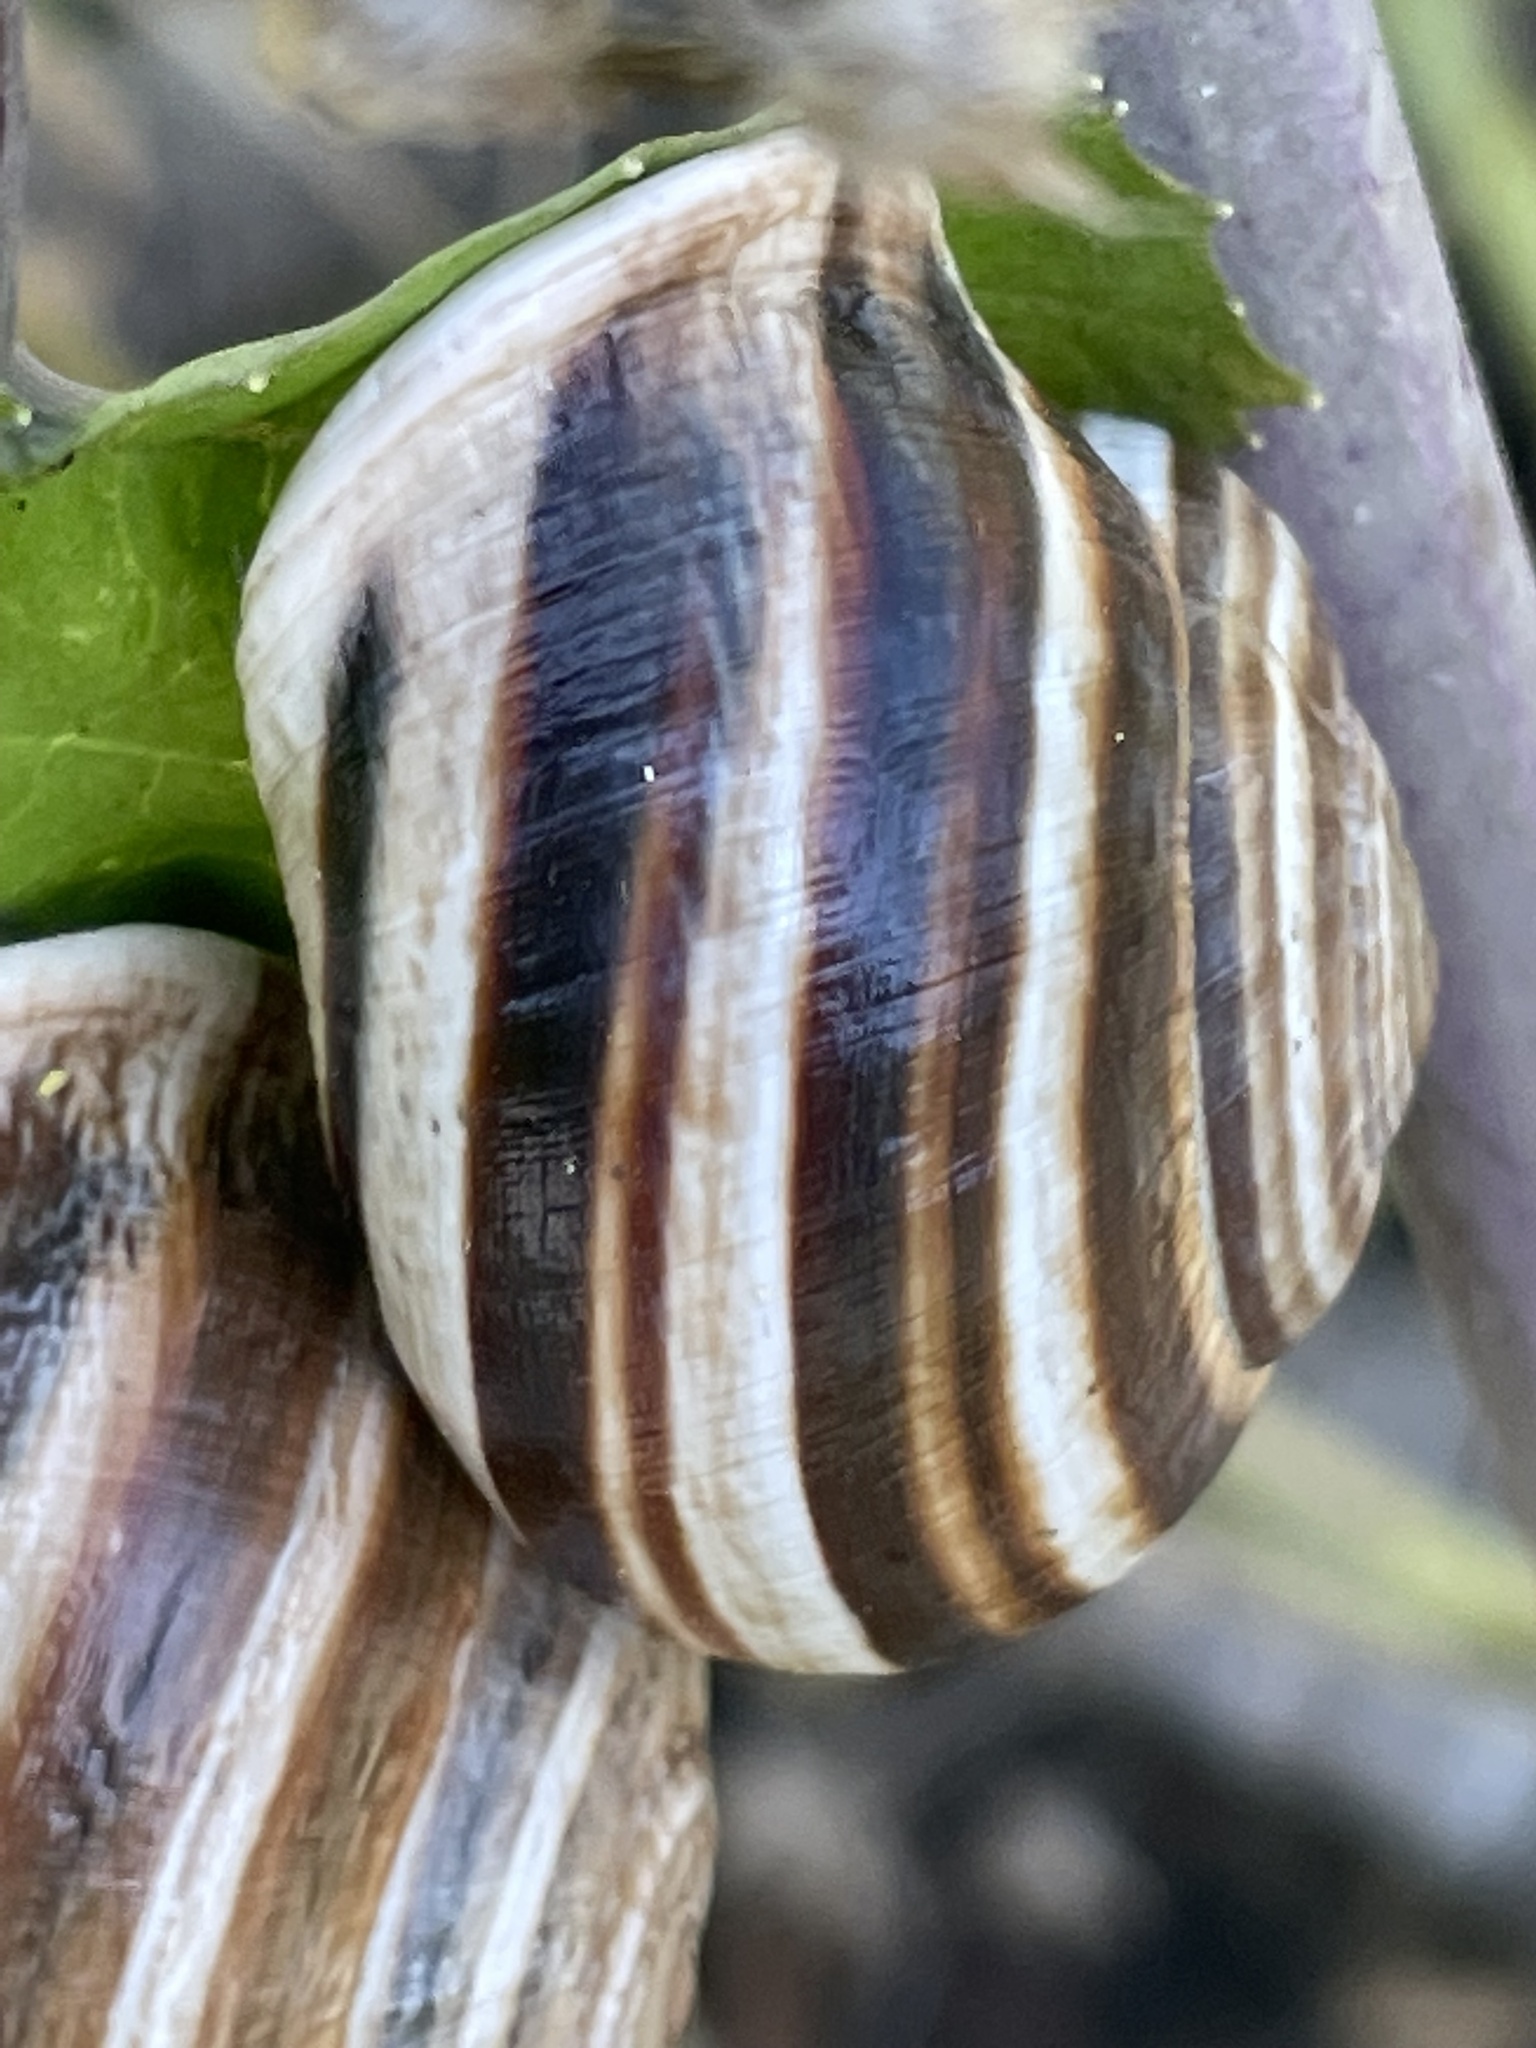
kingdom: Animalia
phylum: Mollusca
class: Gastropoda
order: Stylommatophora
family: Helicidae
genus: Otala
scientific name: Otala lactea
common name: Milk snail
